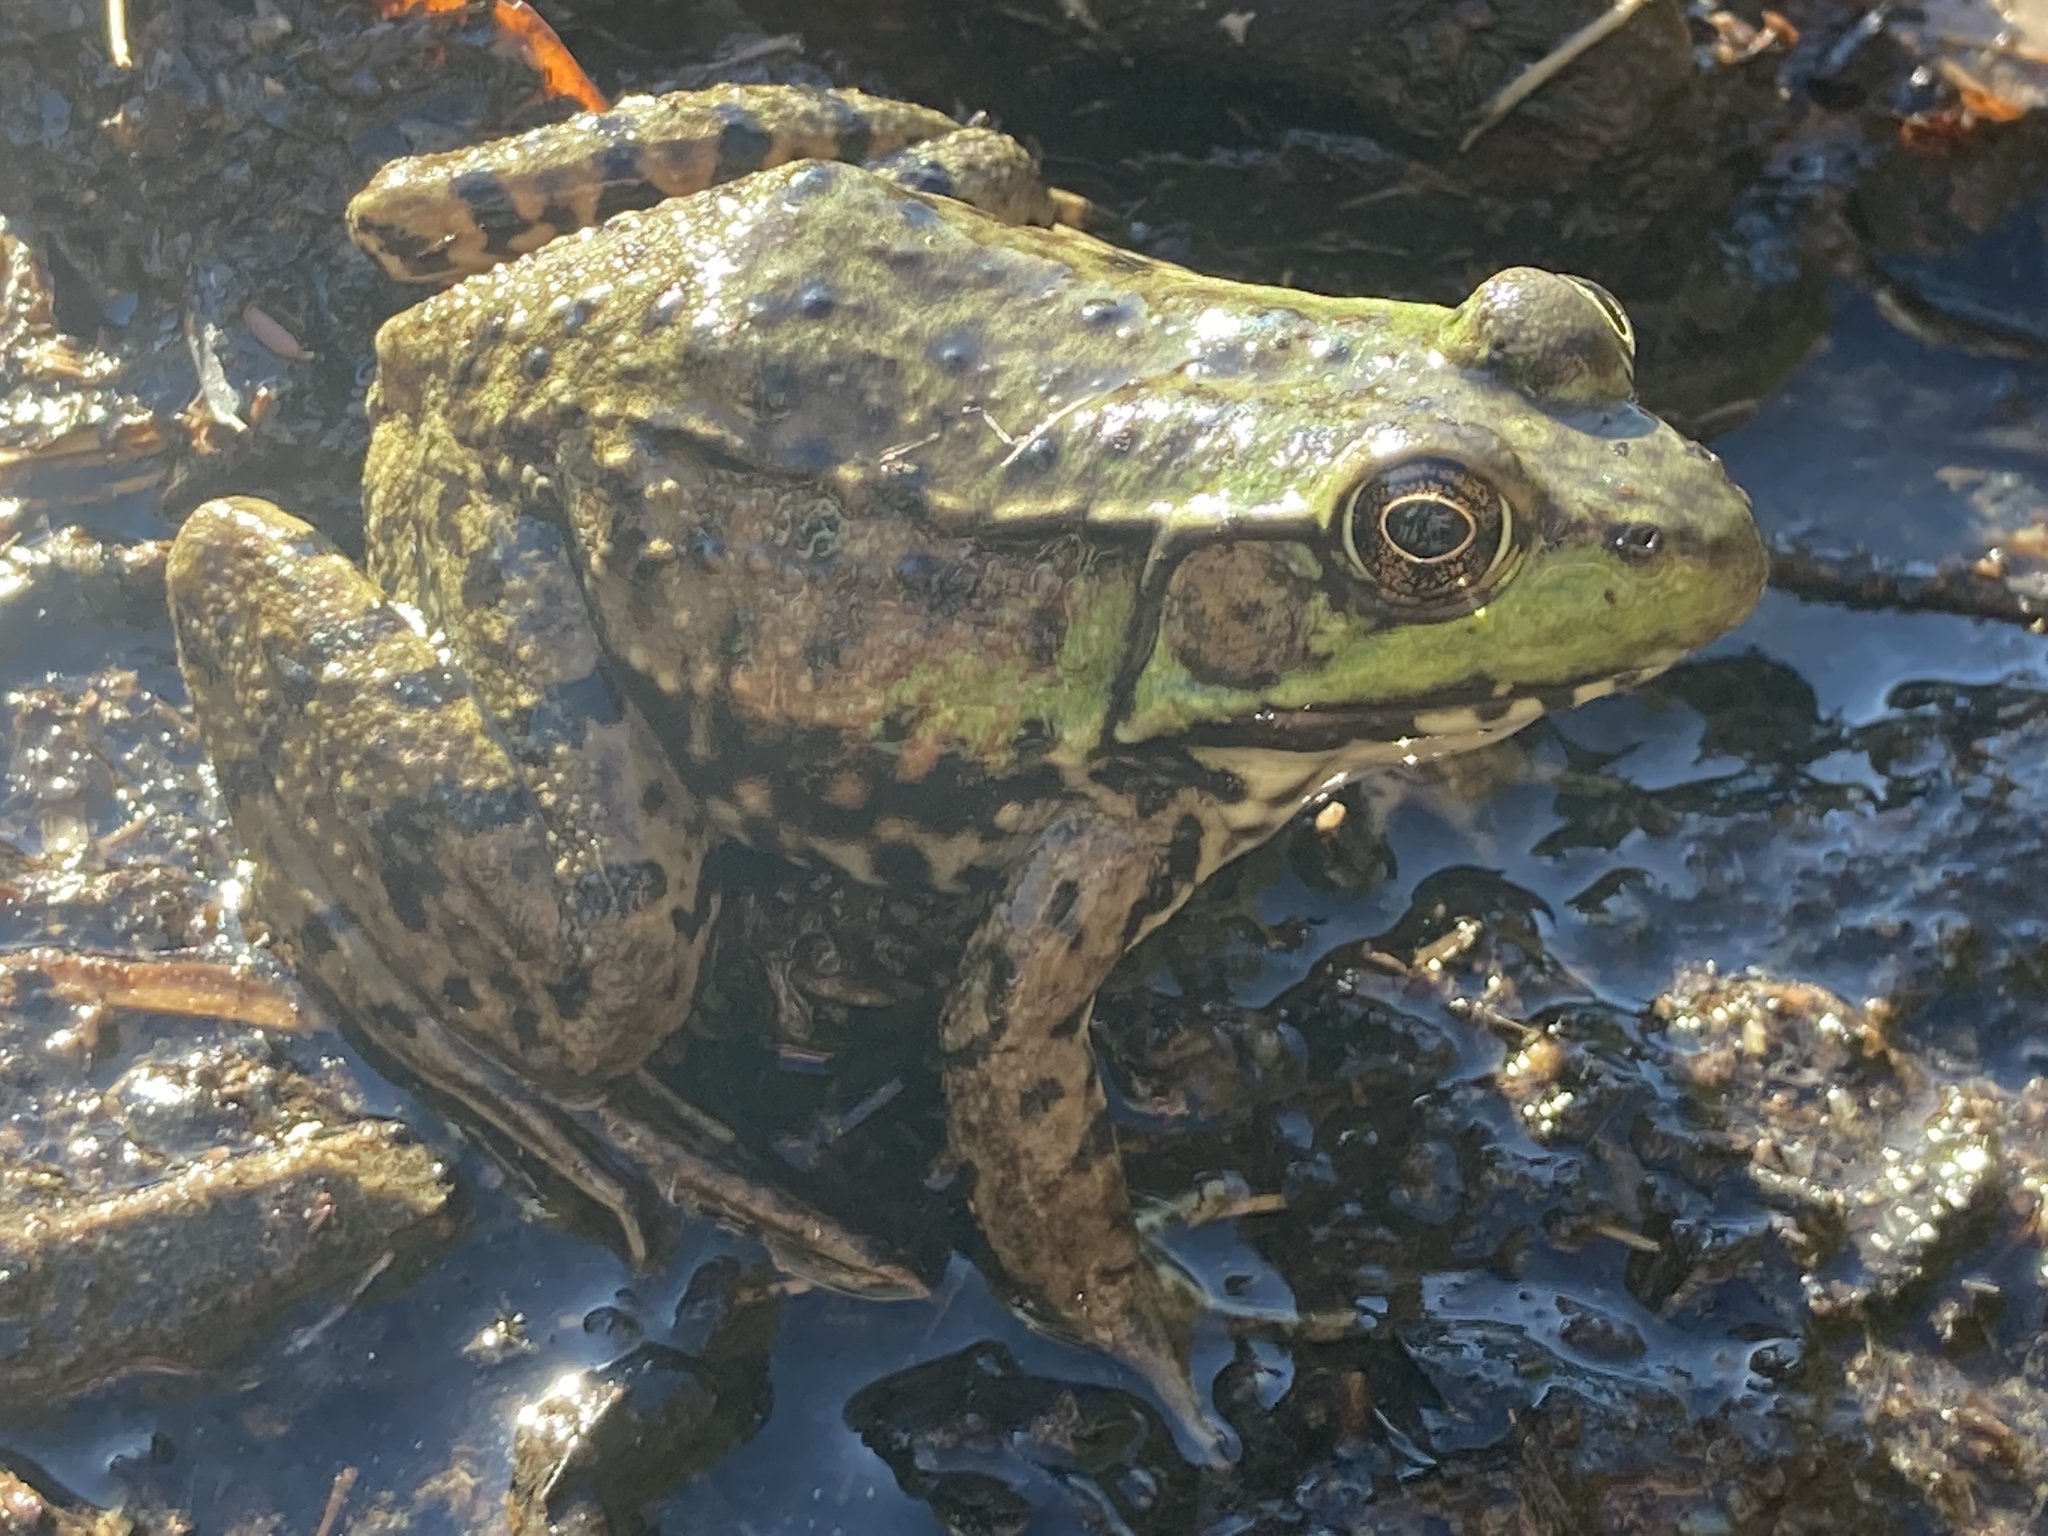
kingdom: Animalia
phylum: Chordata
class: Amphibia
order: Anura
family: Ranidae
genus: Lithobates
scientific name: Lithobates clamitans
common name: Green frog
